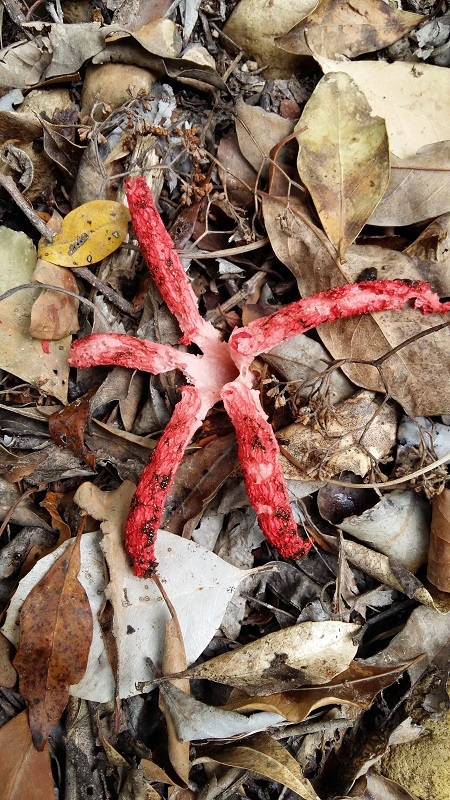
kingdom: Fungi
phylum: Basidiomycota
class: Agaricomycetes
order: Phallales
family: Phallaceae
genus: Clathrus
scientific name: Clathrus archeri
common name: Devil's fingers
